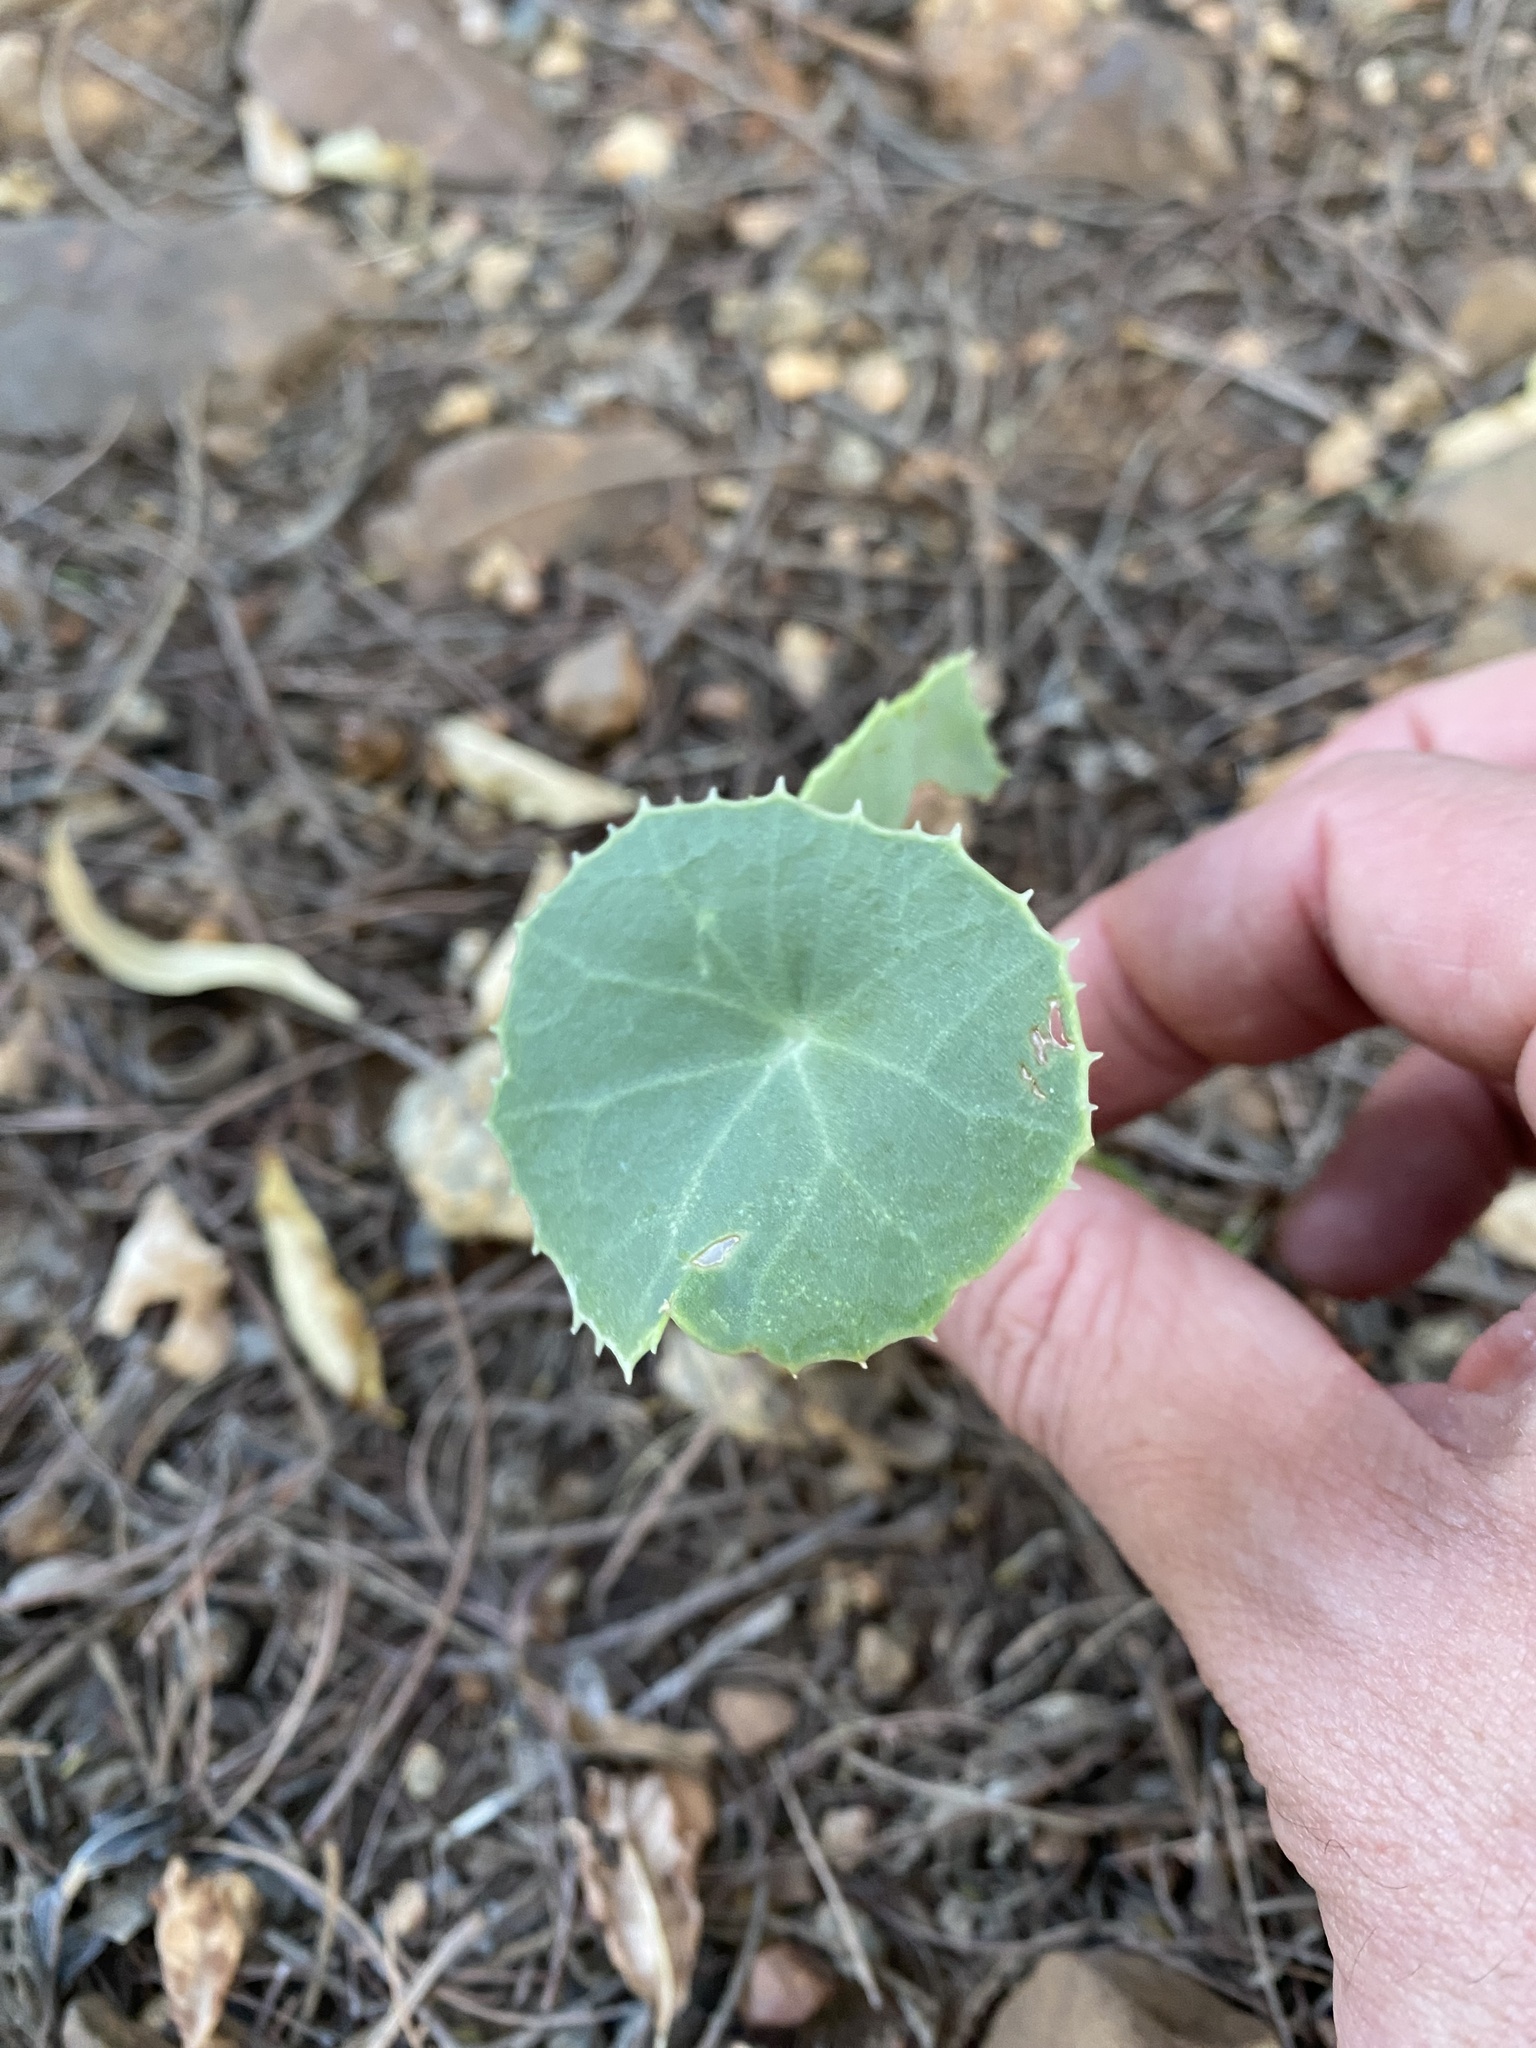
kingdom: Plantae
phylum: Tracheophyta
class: Magnoliopsida
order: Asterales
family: Asteraceae
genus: Senecio
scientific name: Senecio oxyriifolius
